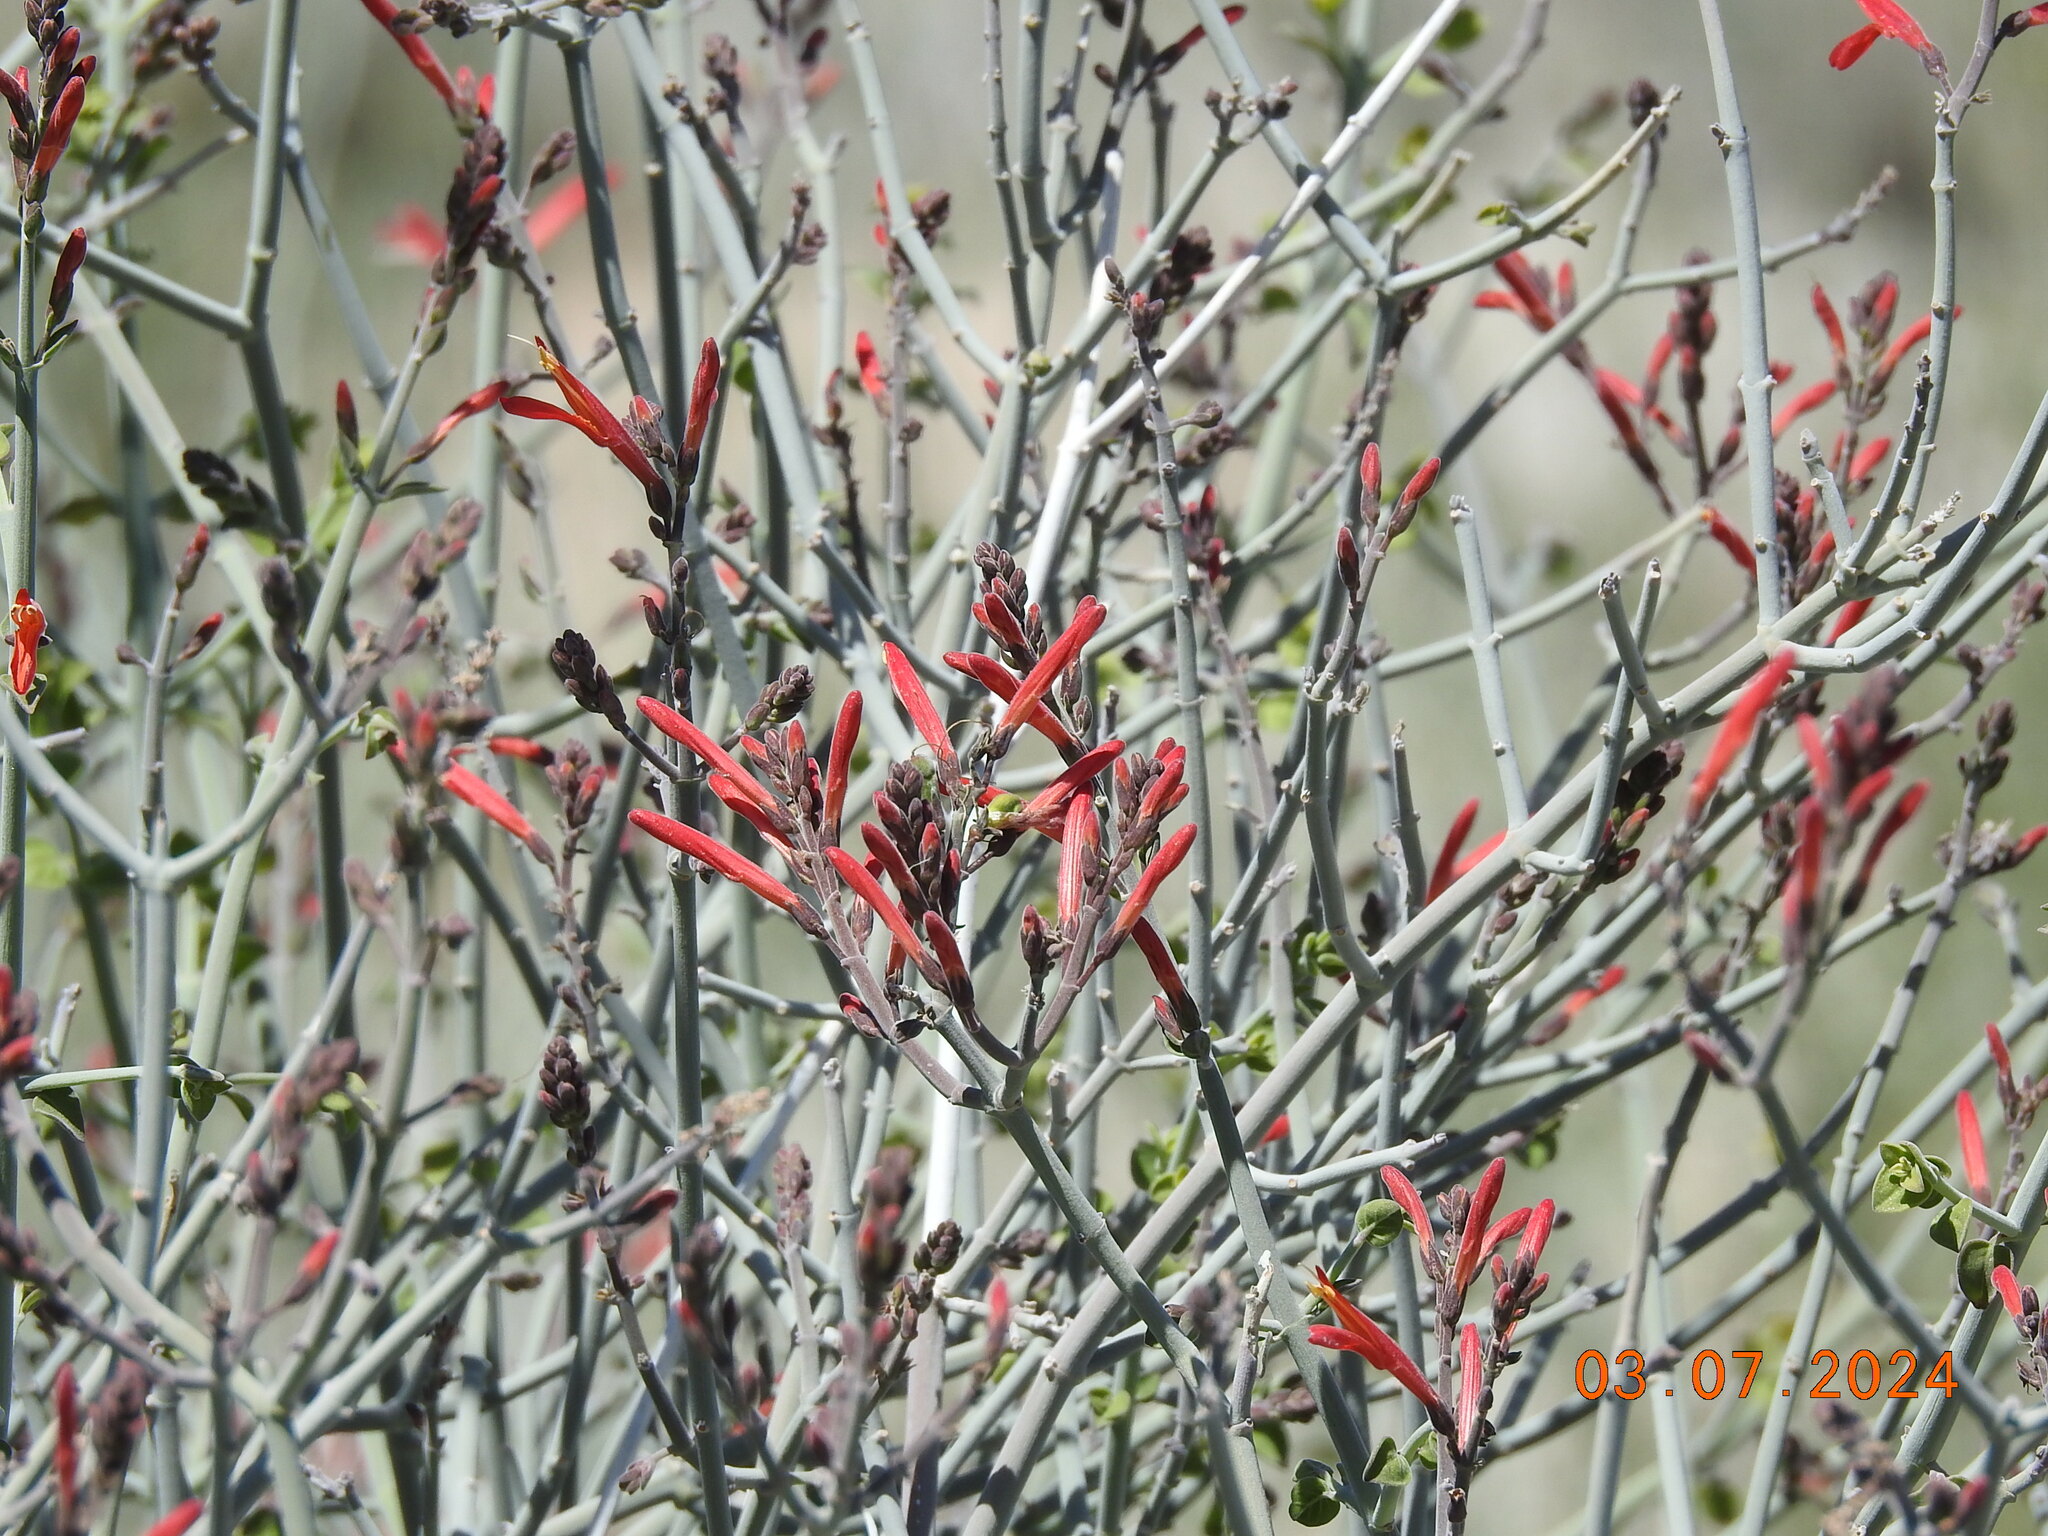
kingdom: Plantae
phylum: Tracheophyta
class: Magnoliopsida
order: Lamiales
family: Acanthaceae
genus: Justicia
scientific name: Justicia californica
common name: Chuparosa-honeysuckle
